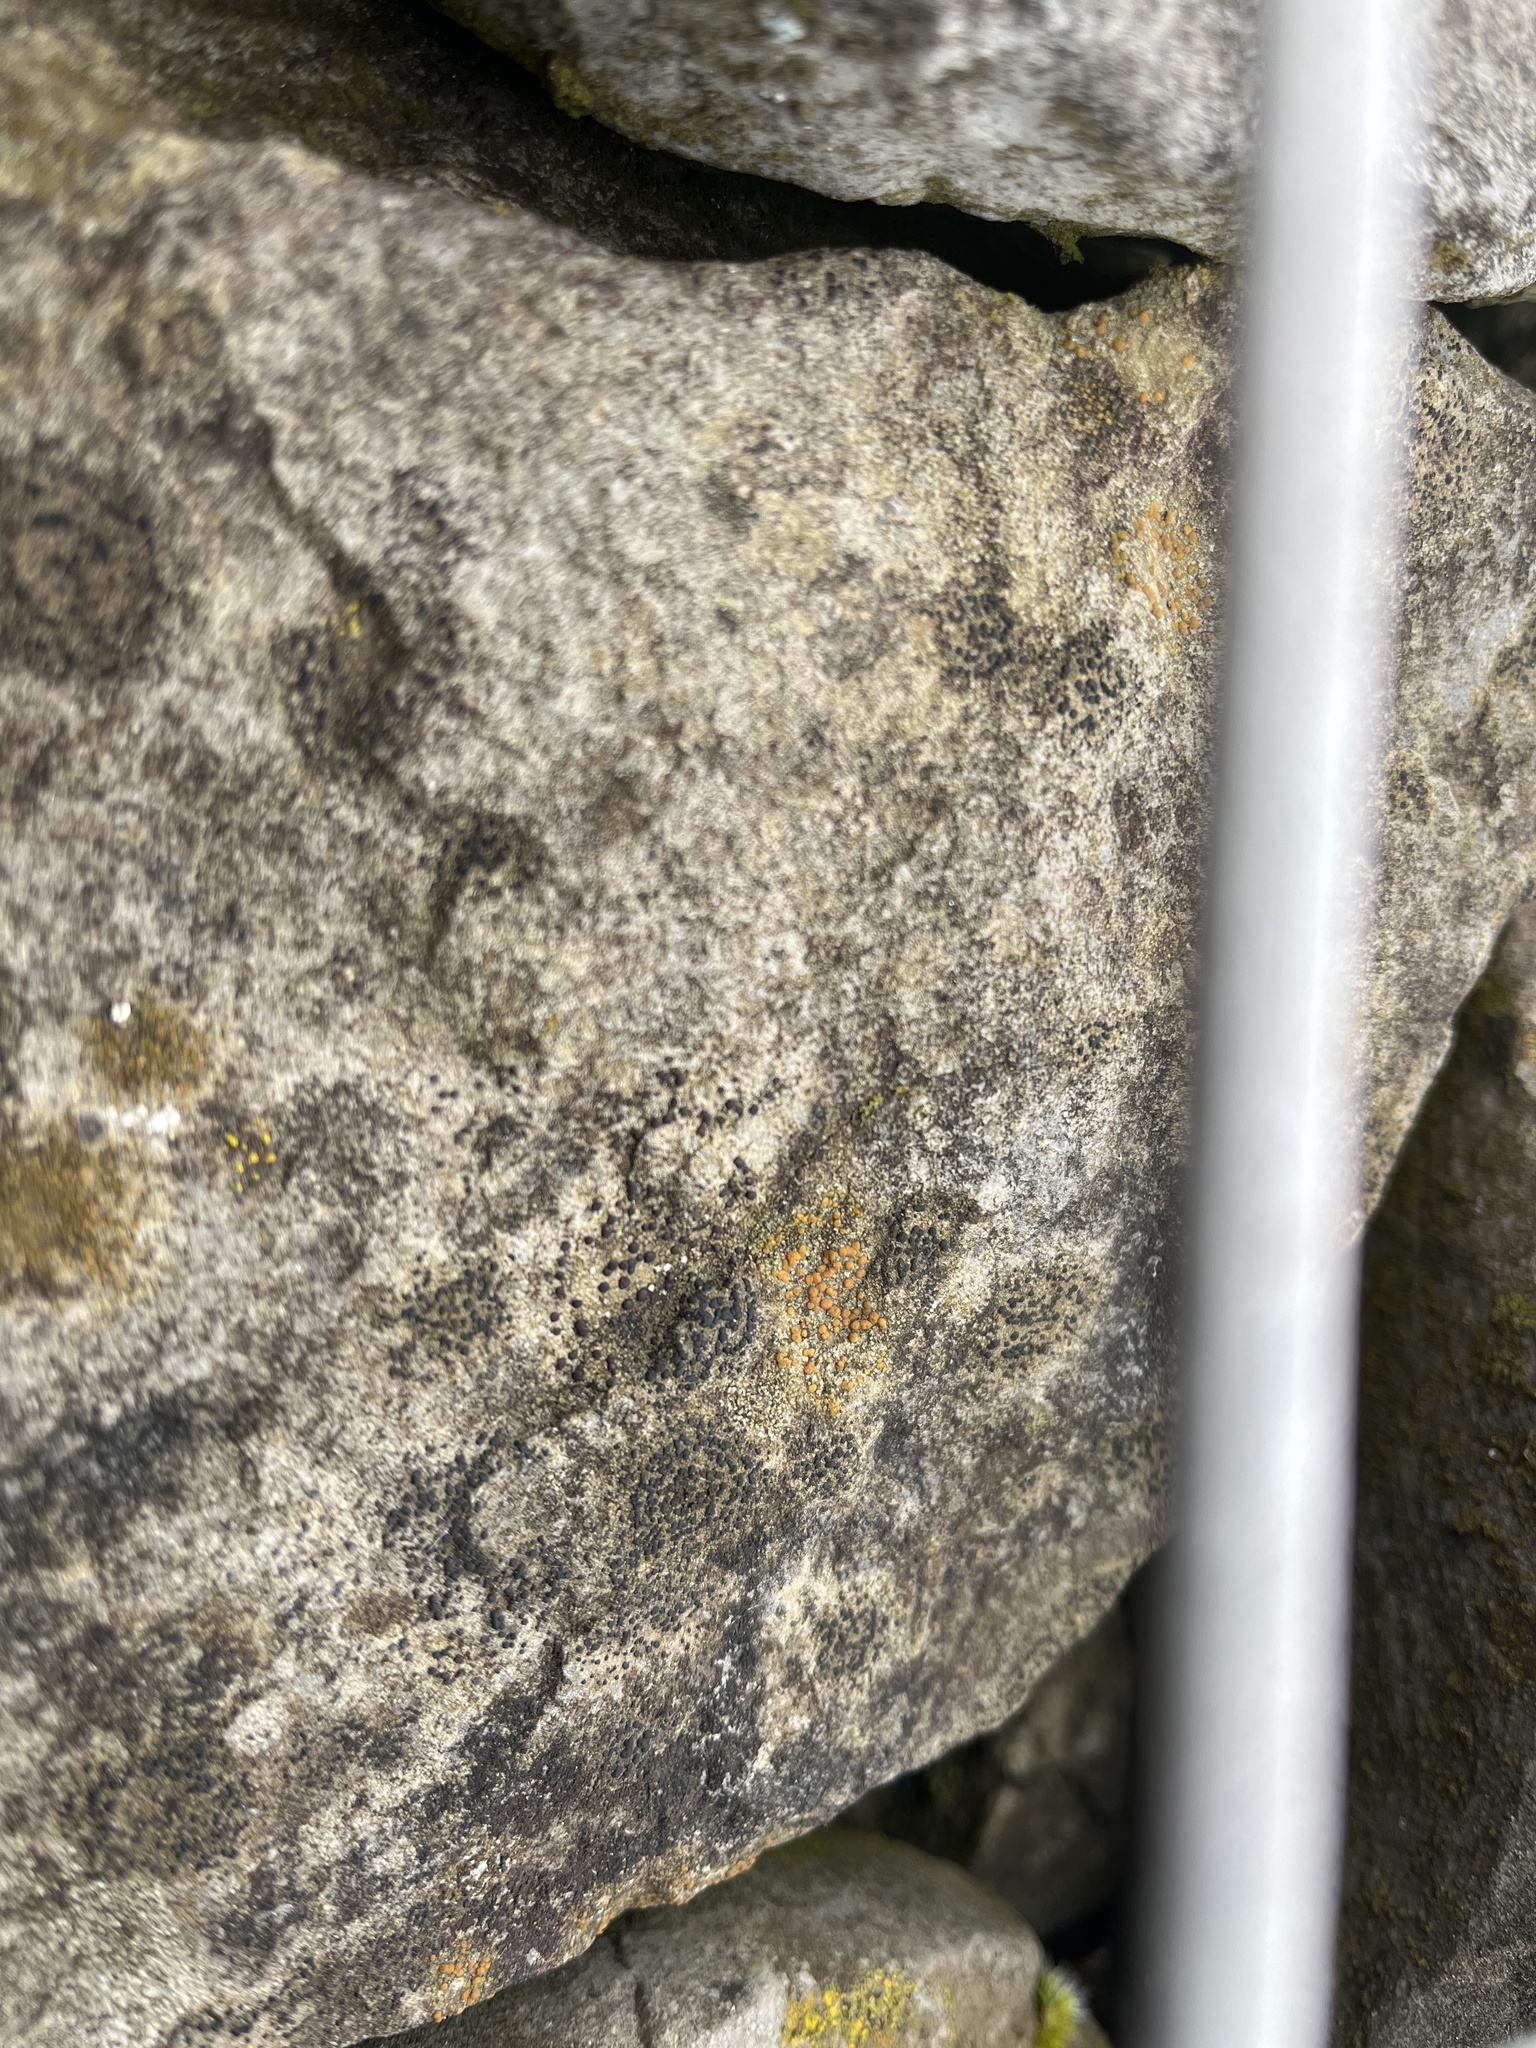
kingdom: Fungi
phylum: Ascomycota
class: Lecanoromycetes
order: Lecanorales
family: Psoraceae
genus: Protoblastenia
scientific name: Protoblastenia rupestris
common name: Chewing gum lichen
